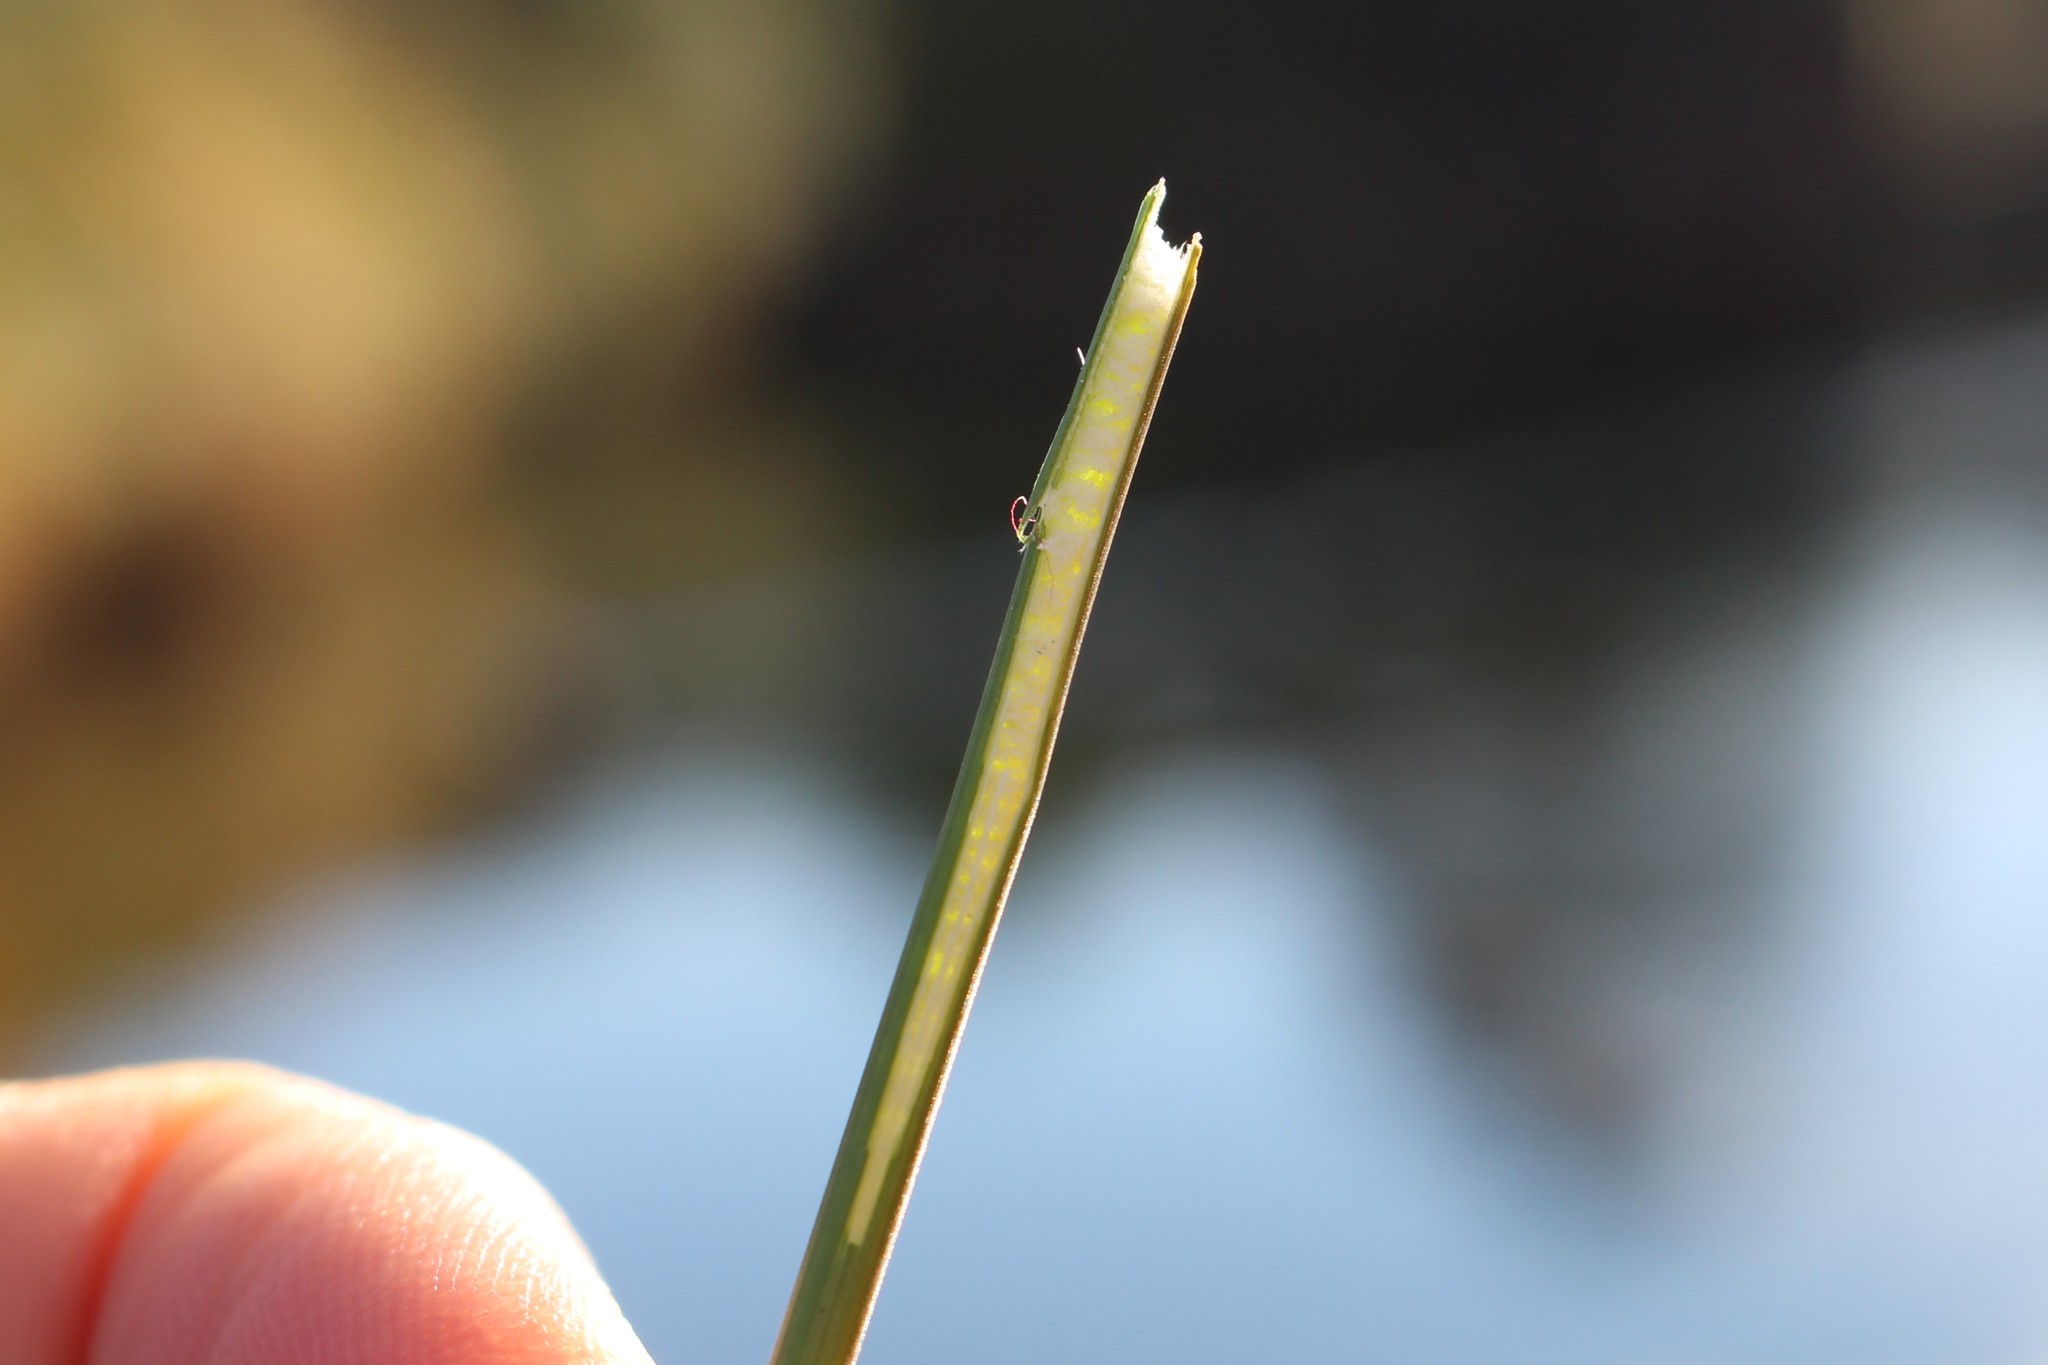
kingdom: Plantae
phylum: Tracheophyta
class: Liliopsida
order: Poales
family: Juncaceae
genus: Juncus
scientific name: Juncus edgariae
